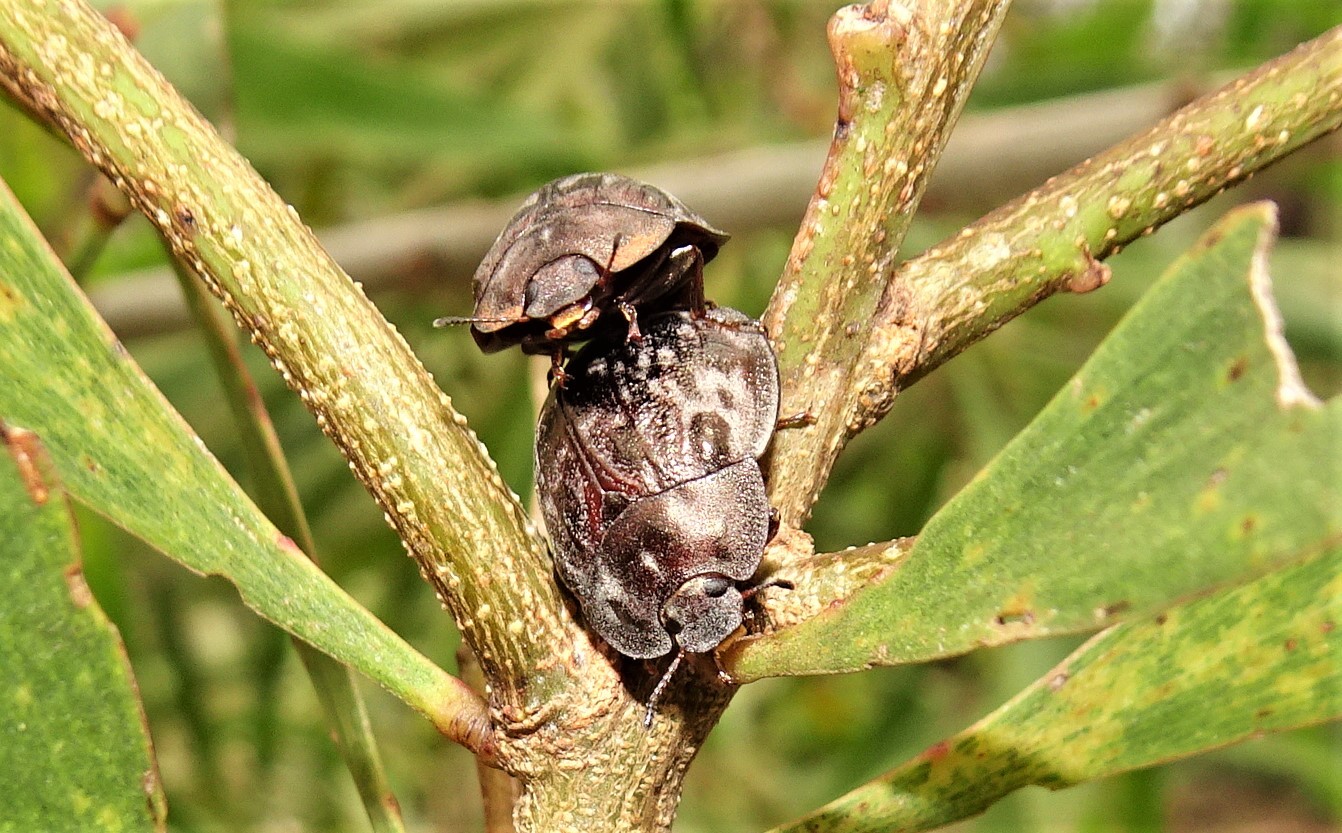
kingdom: Animalia
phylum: Arthropoda
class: Insecta
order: Coleoptera
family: Tenebrionidae
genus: Ospidus
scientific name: Ospidus
